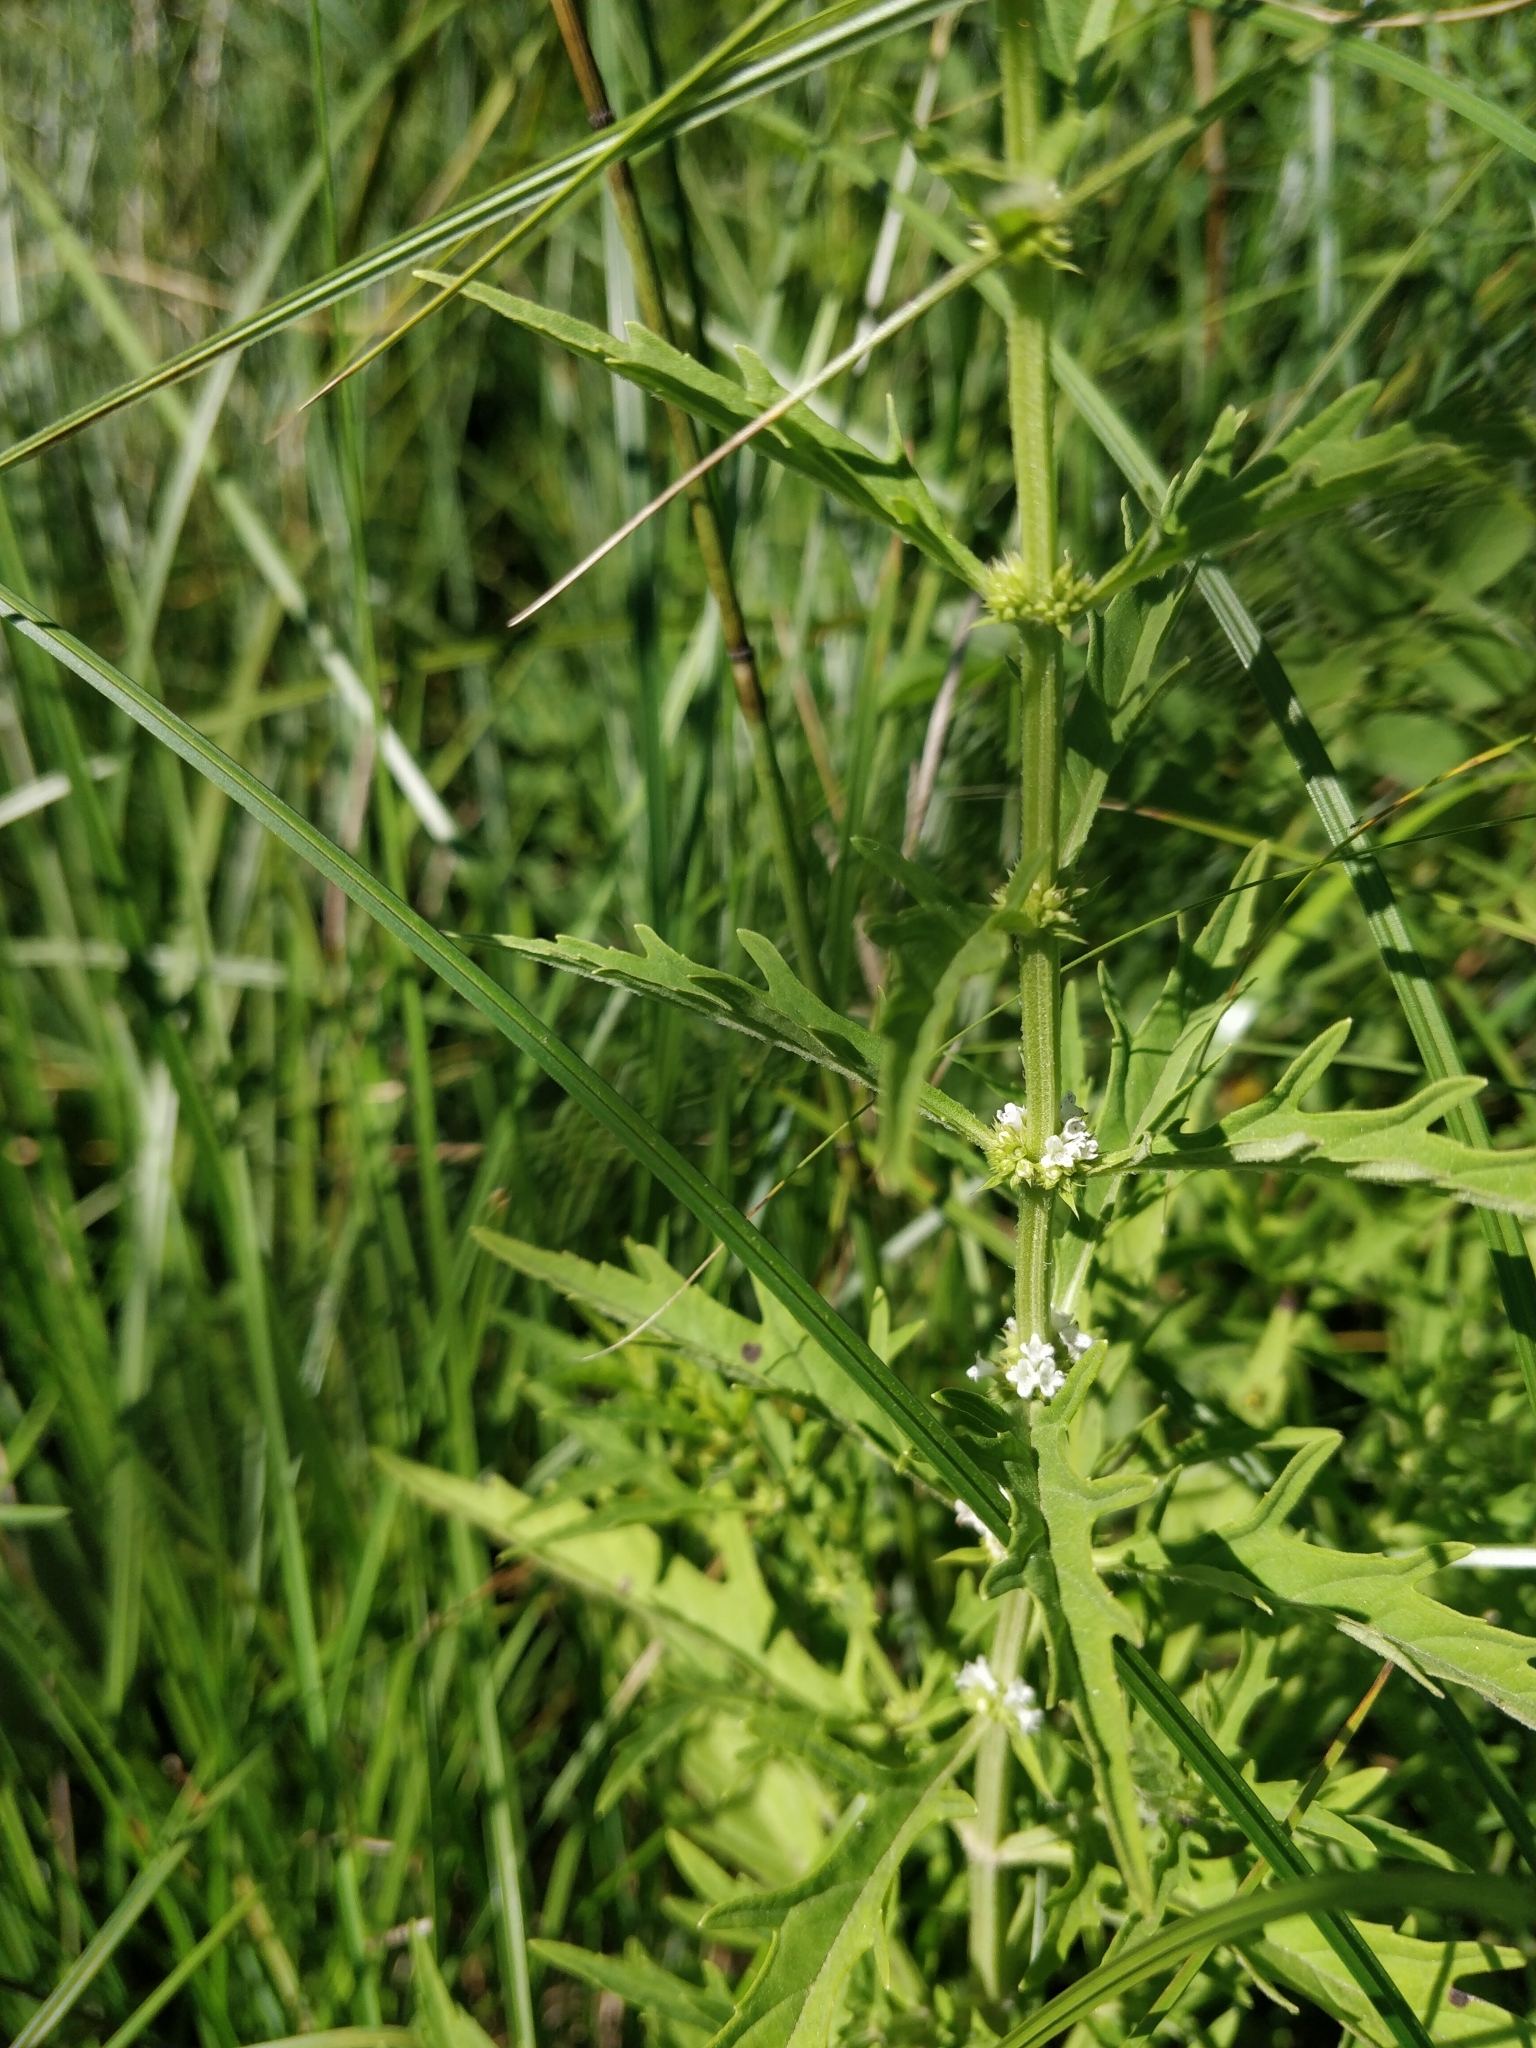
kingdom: Plantae
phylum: Tracheophyta
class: Magnoliopsida
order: Lamiales
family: Lamiaceae
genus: Lycopus
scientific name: Lycopus americanus
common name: American bugleweed
